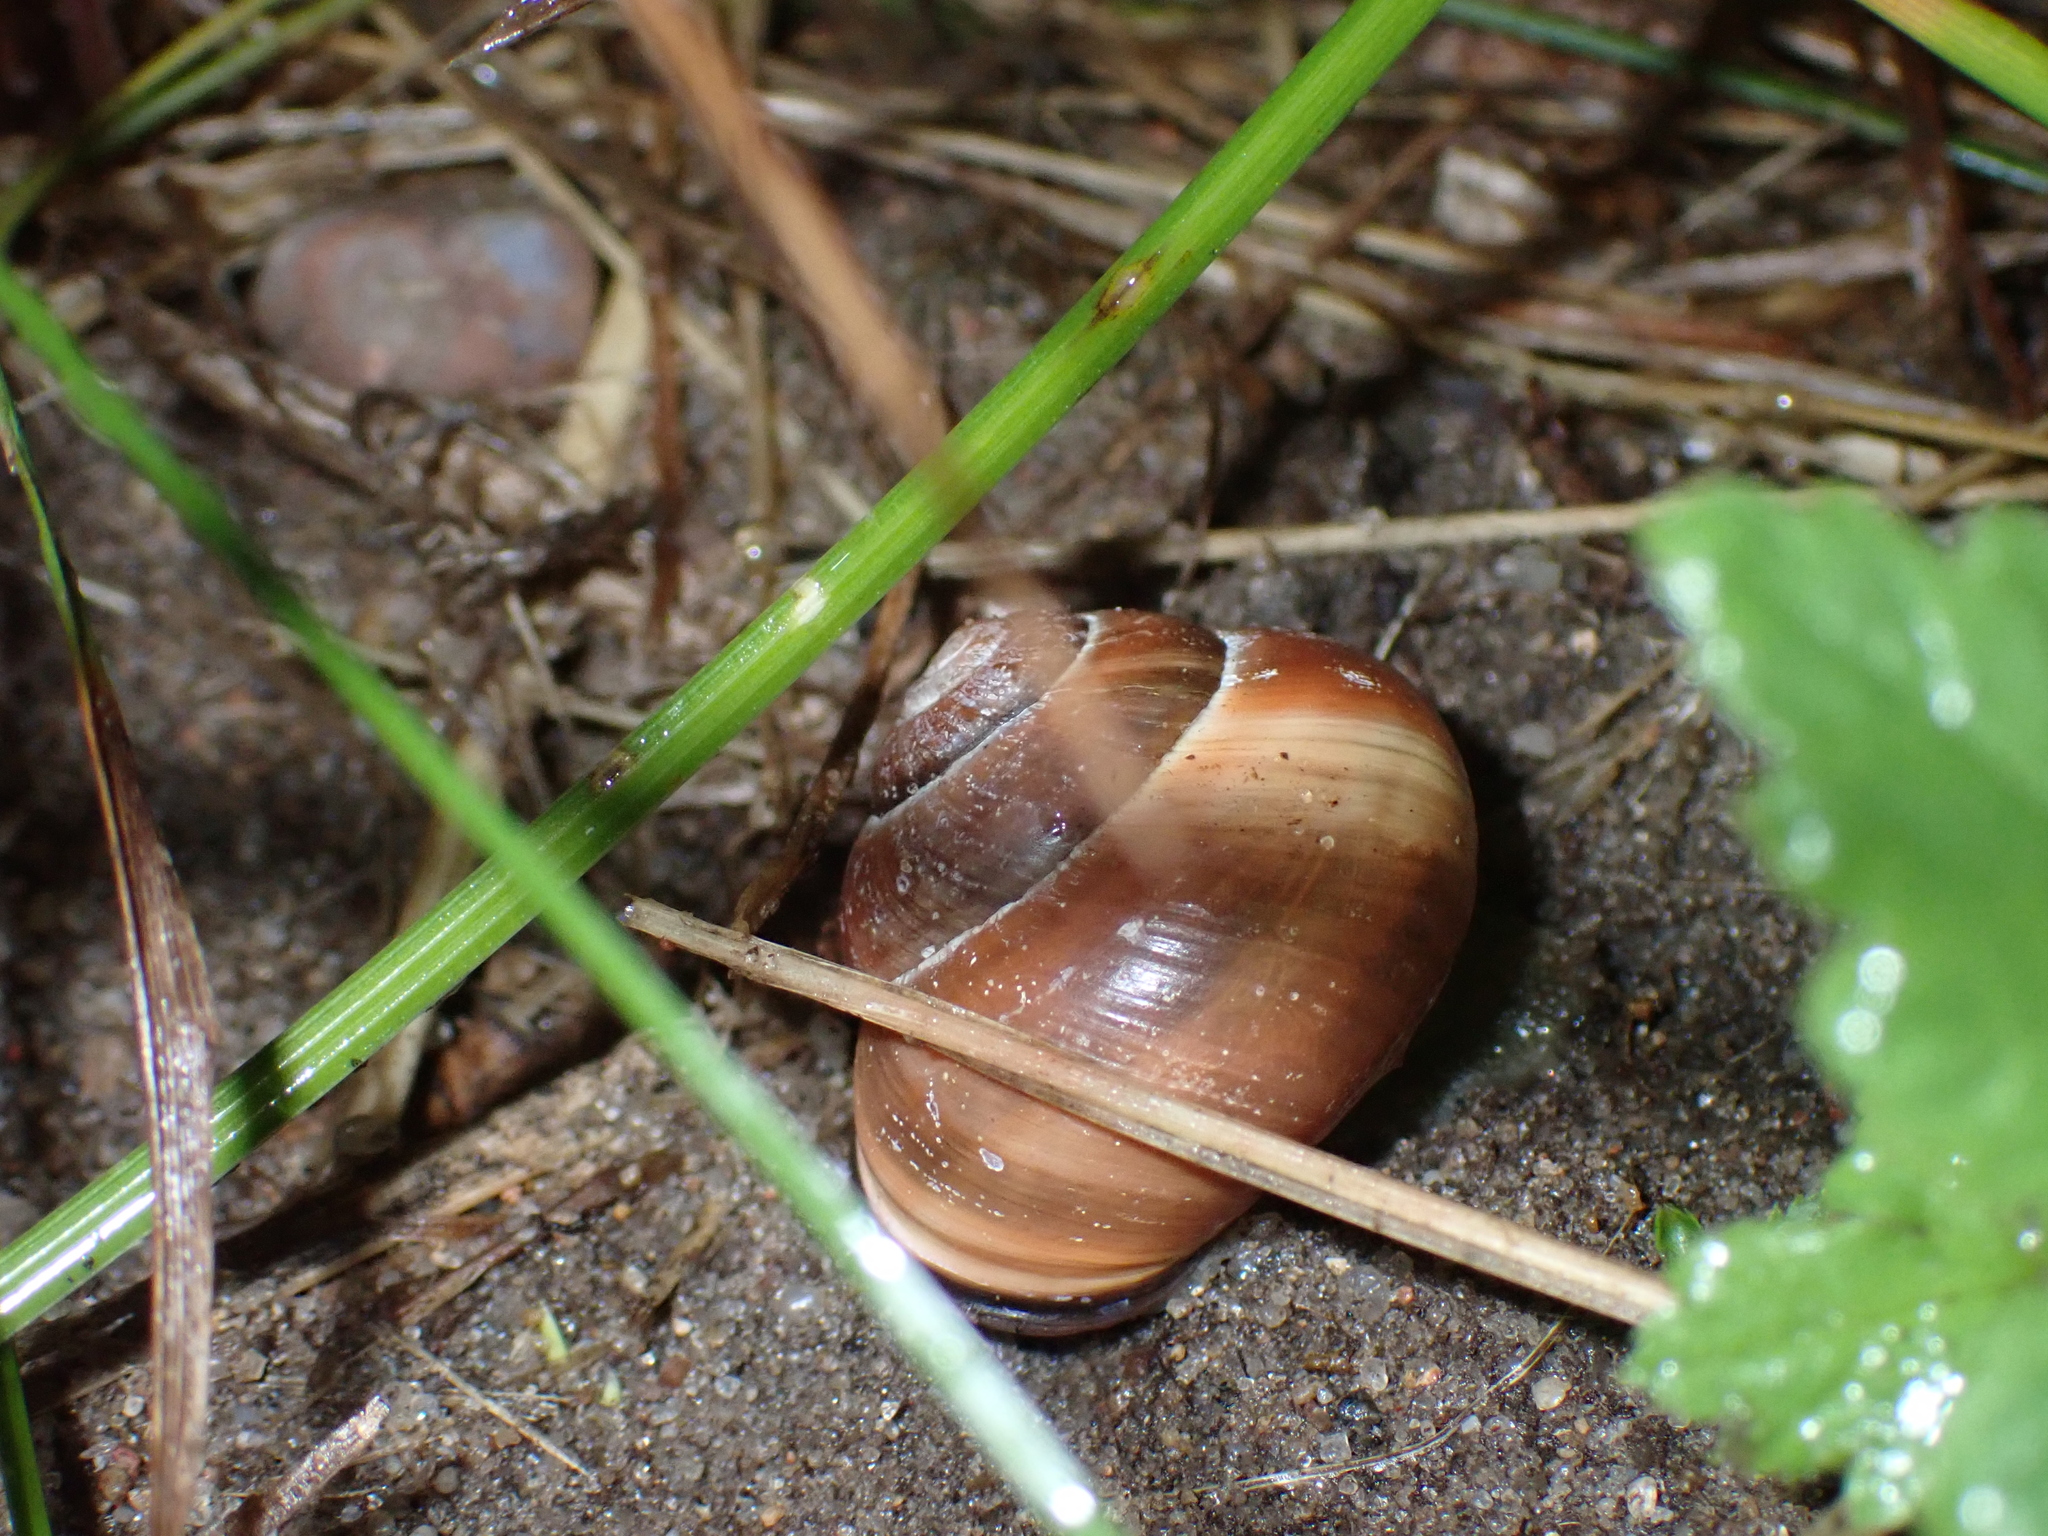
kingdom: Animalia
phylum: Mollusca
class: Gastropoda
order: Stylommatophora
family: Helicidae
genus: Cepaea
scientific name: Cepaea nemoralis
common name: Grovesnail
